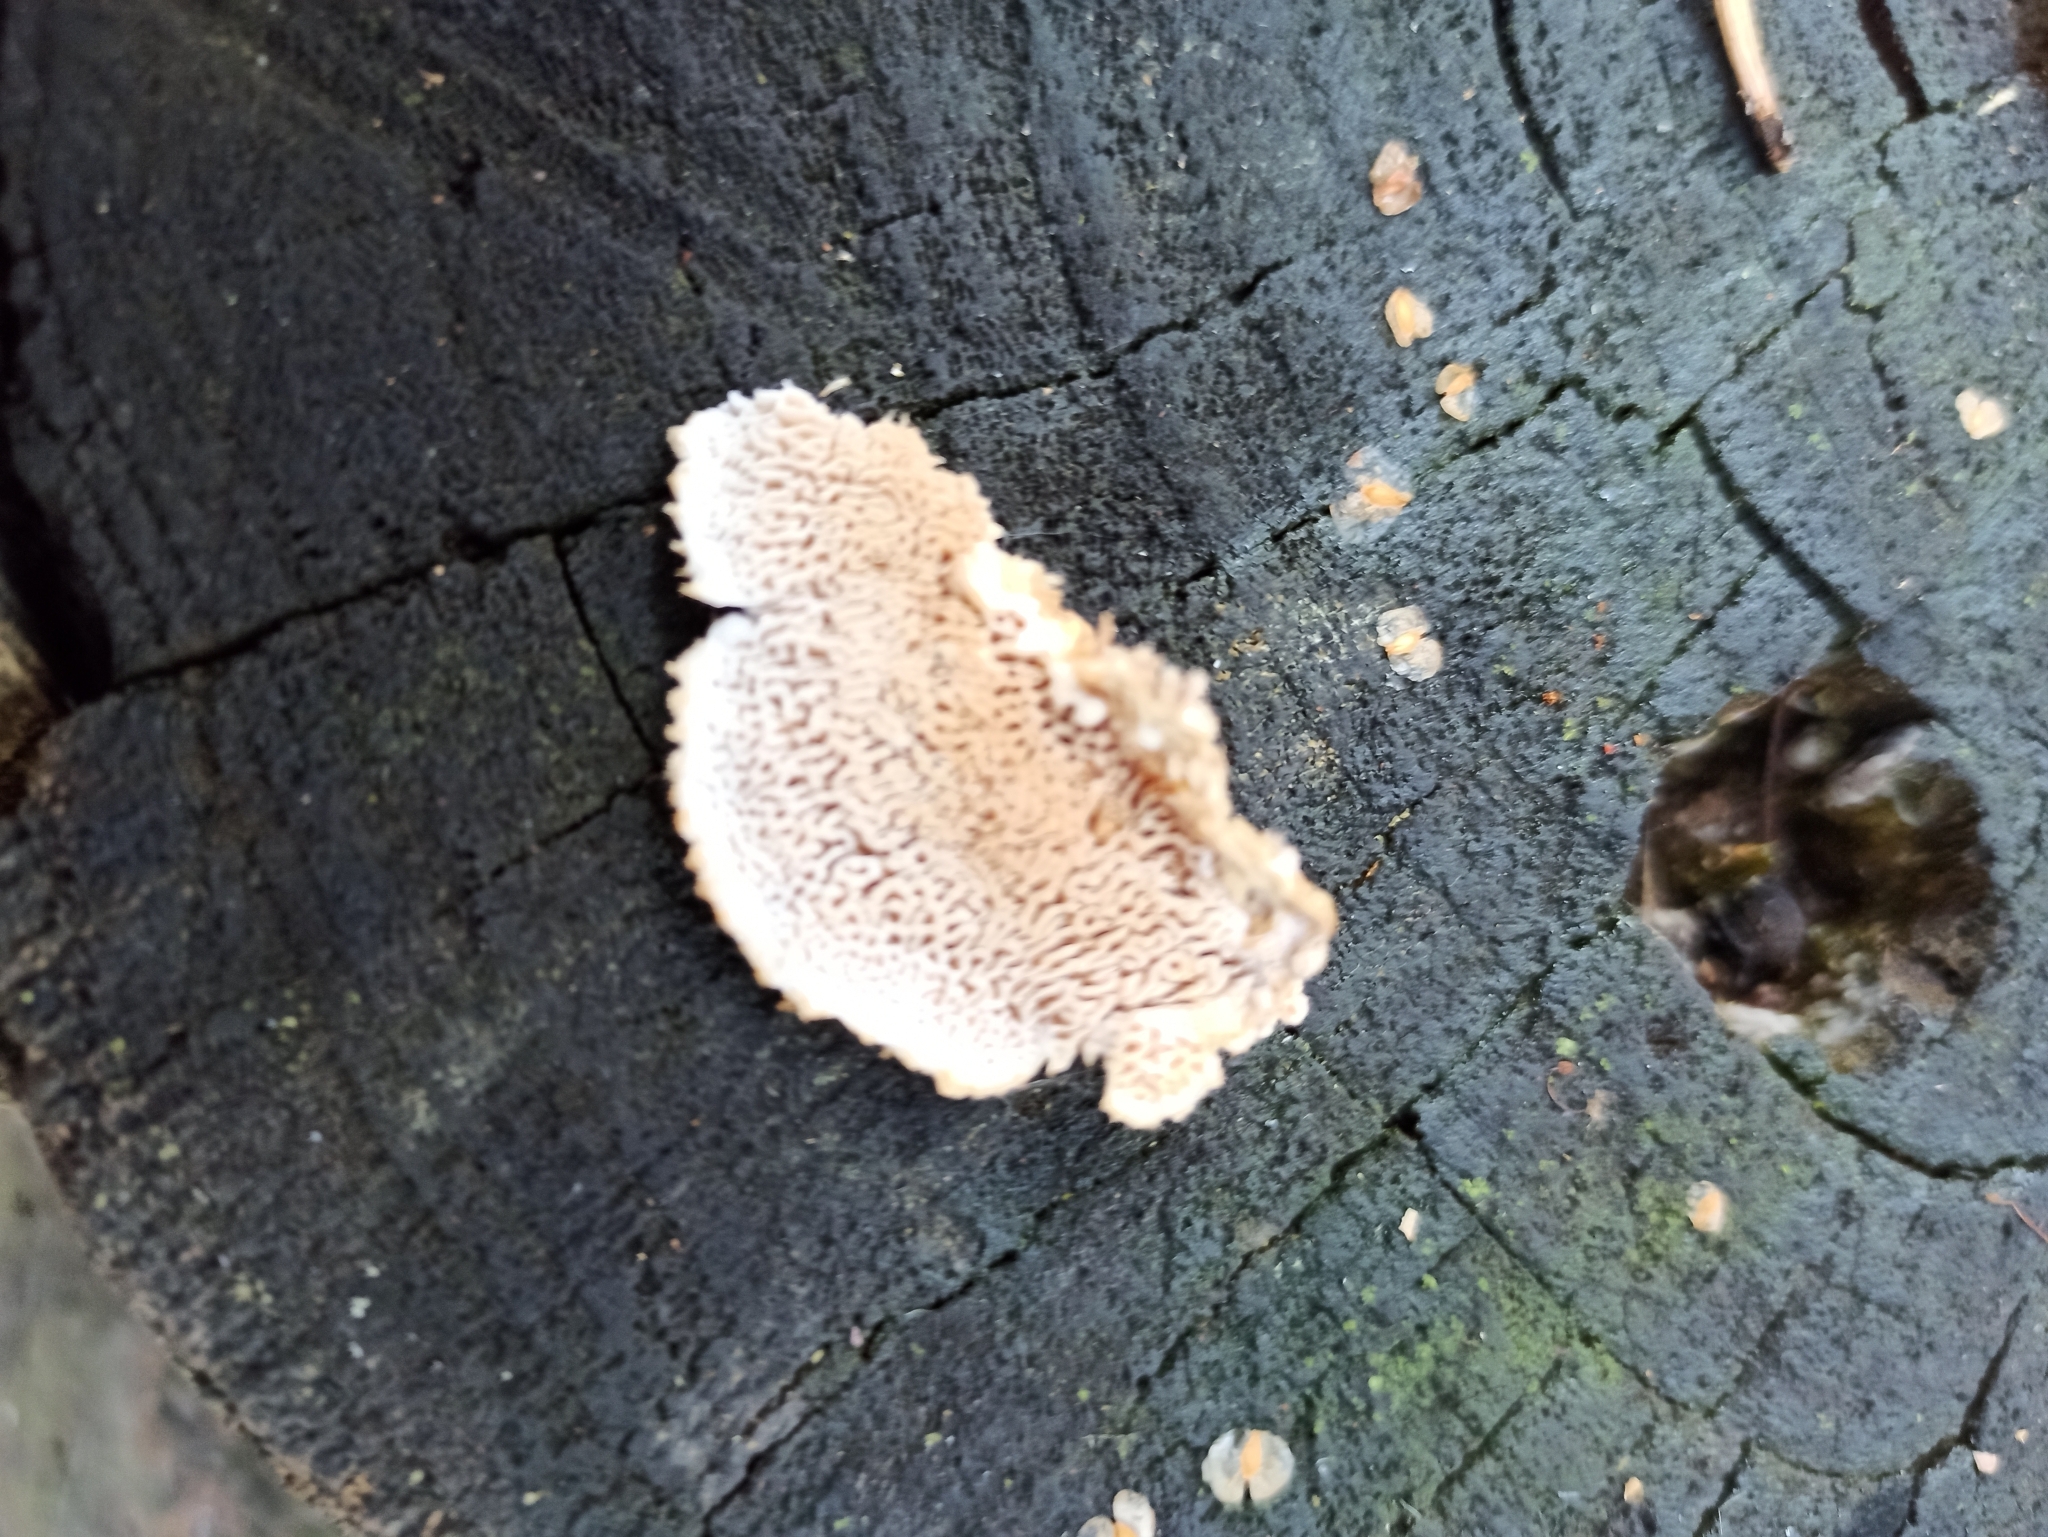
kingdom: Fungi
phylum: Basidiomycota
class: Agaricomycetes
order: Polyporales
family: Irpicaceae
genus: Trametopsis
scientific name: Trametopsis cervina
